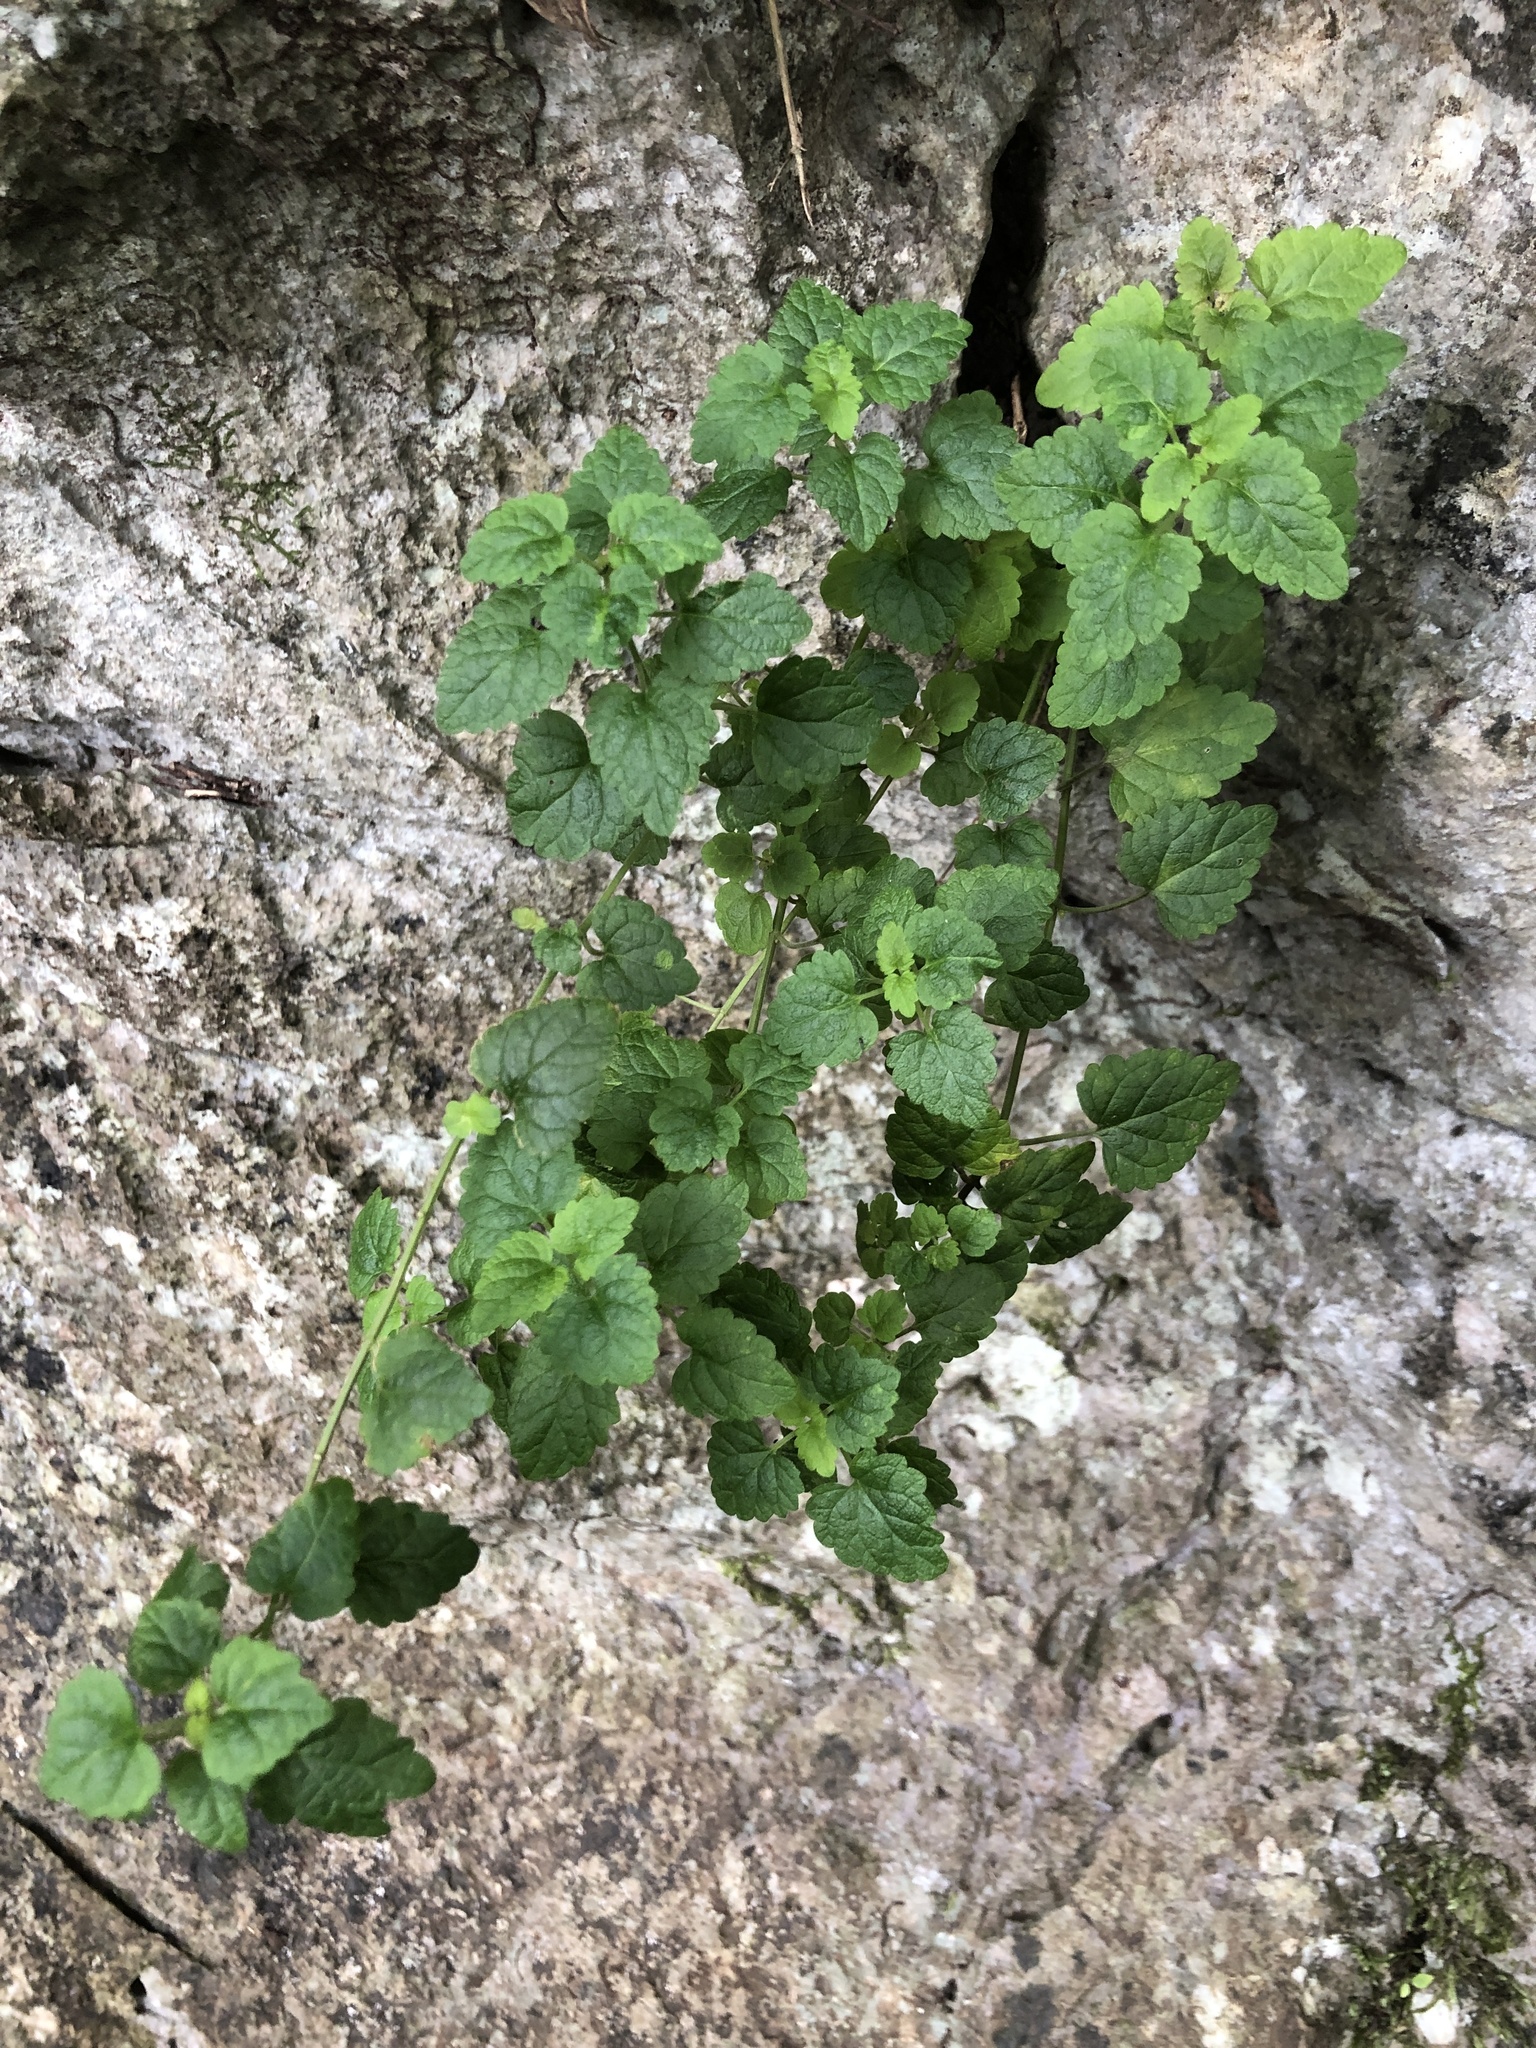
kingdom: Plantae
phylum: Tracheophyta
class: Magnoliopsida
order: Lamiales
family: Lamiaceae
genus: Scutellaria
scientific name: Scutellaria rubropunctata
